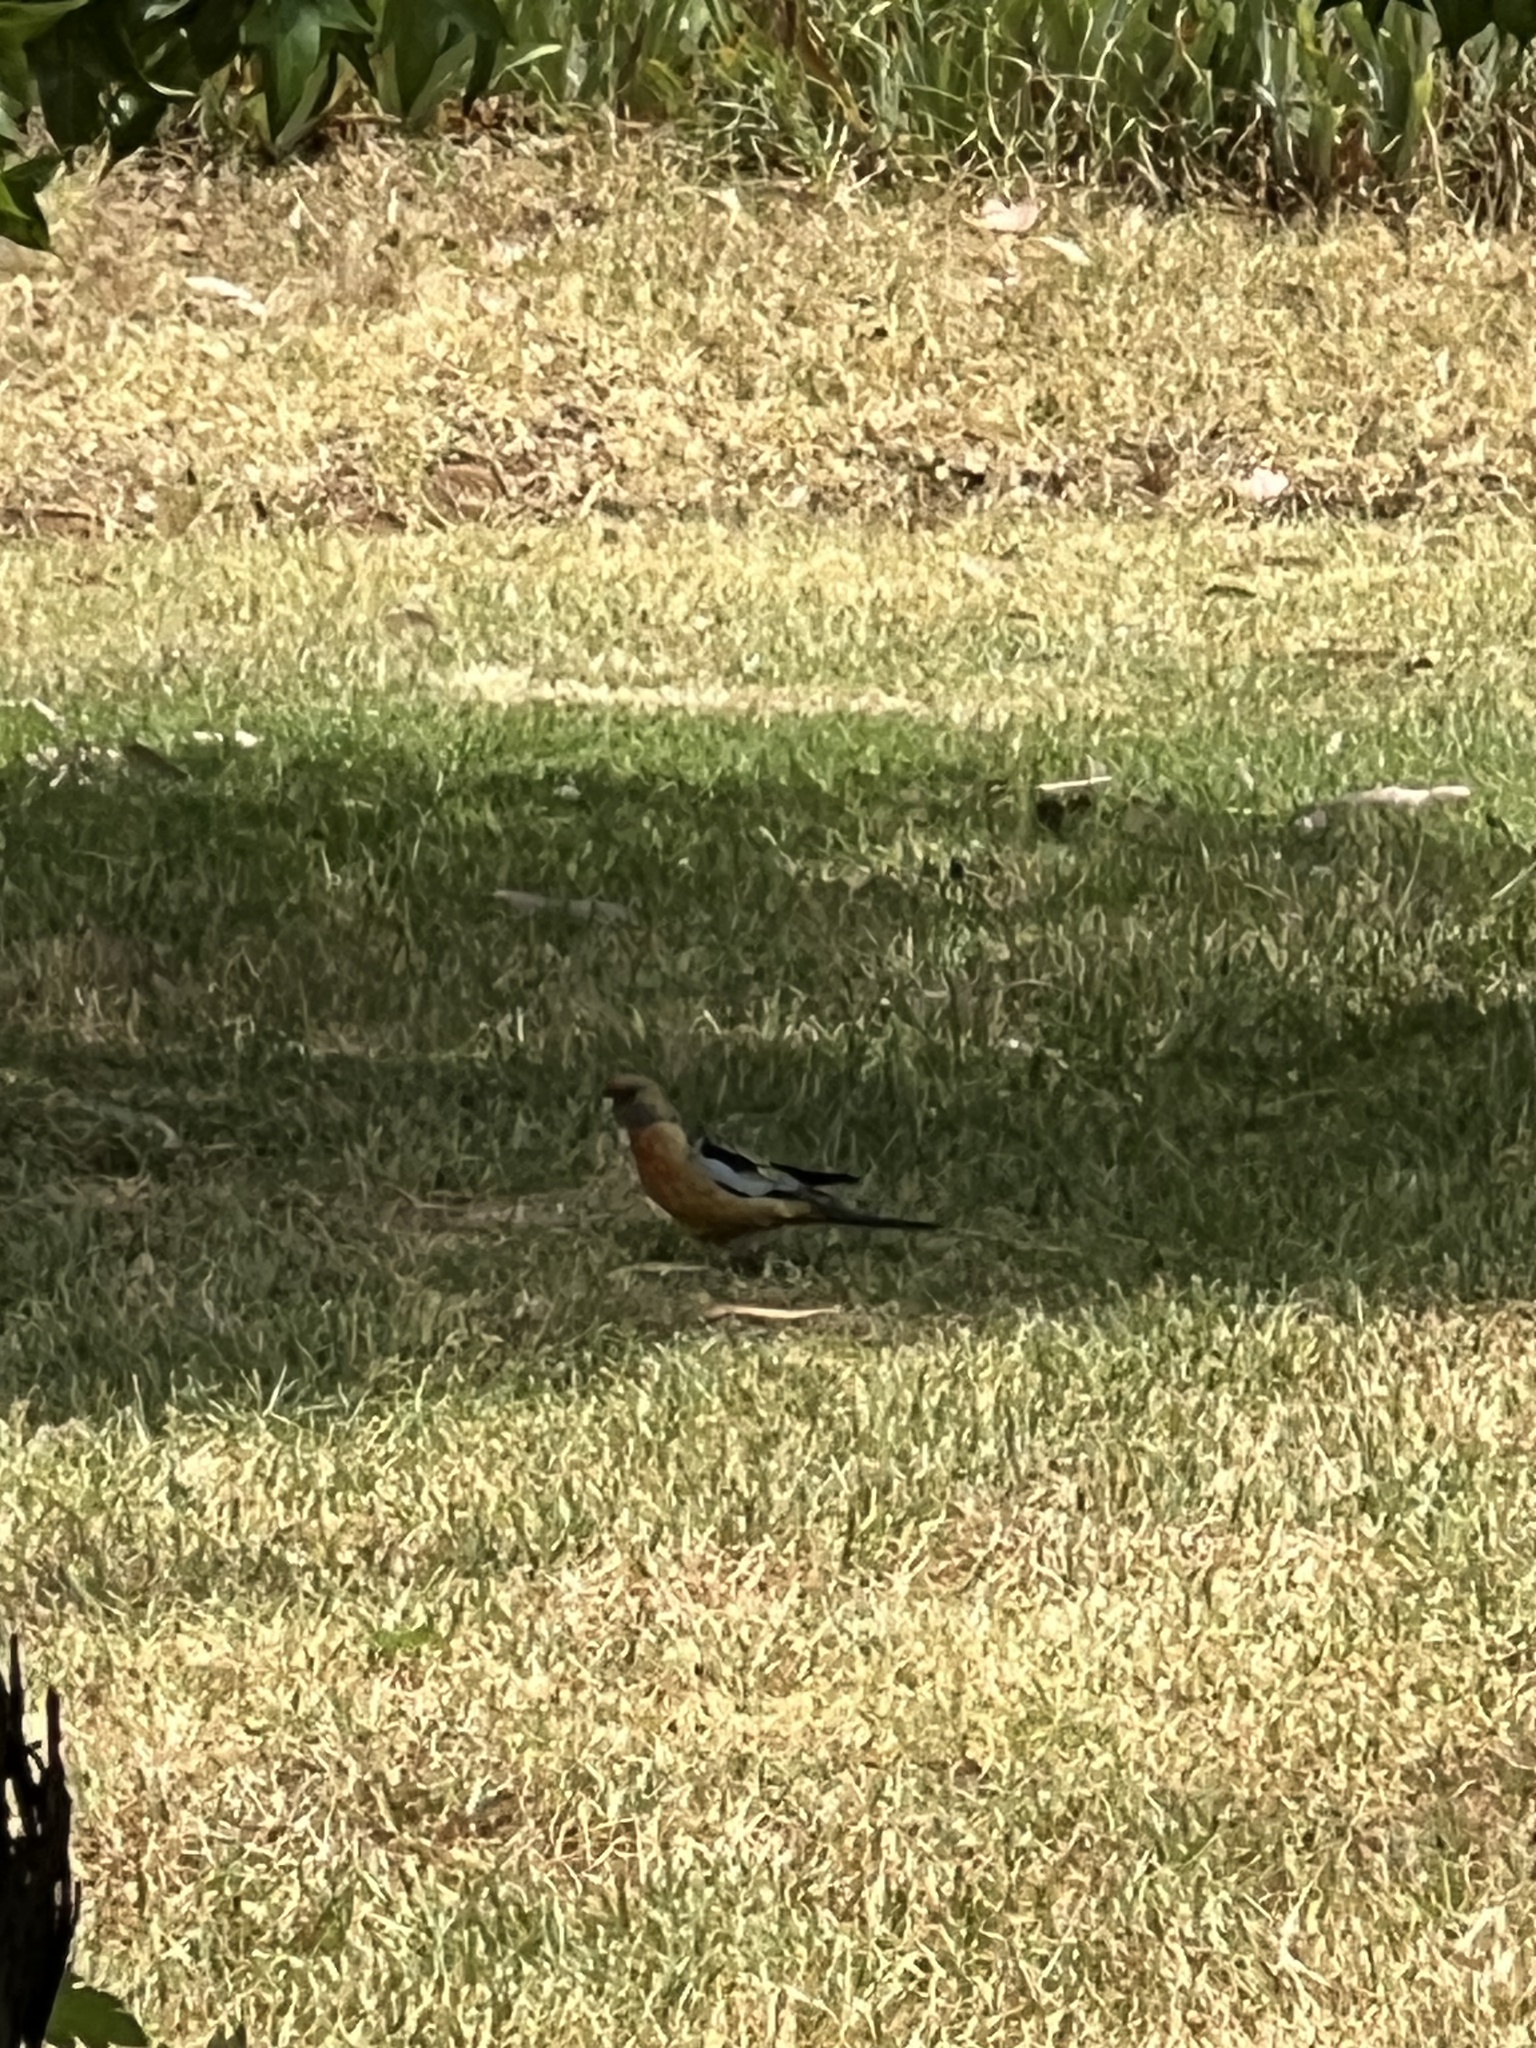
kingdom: Animalia
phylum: Chordata
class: Aves
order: Psittaciformes
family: Psittacidae
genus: Platycercus
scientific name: Platycercus elegans
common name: Crimson rosella
